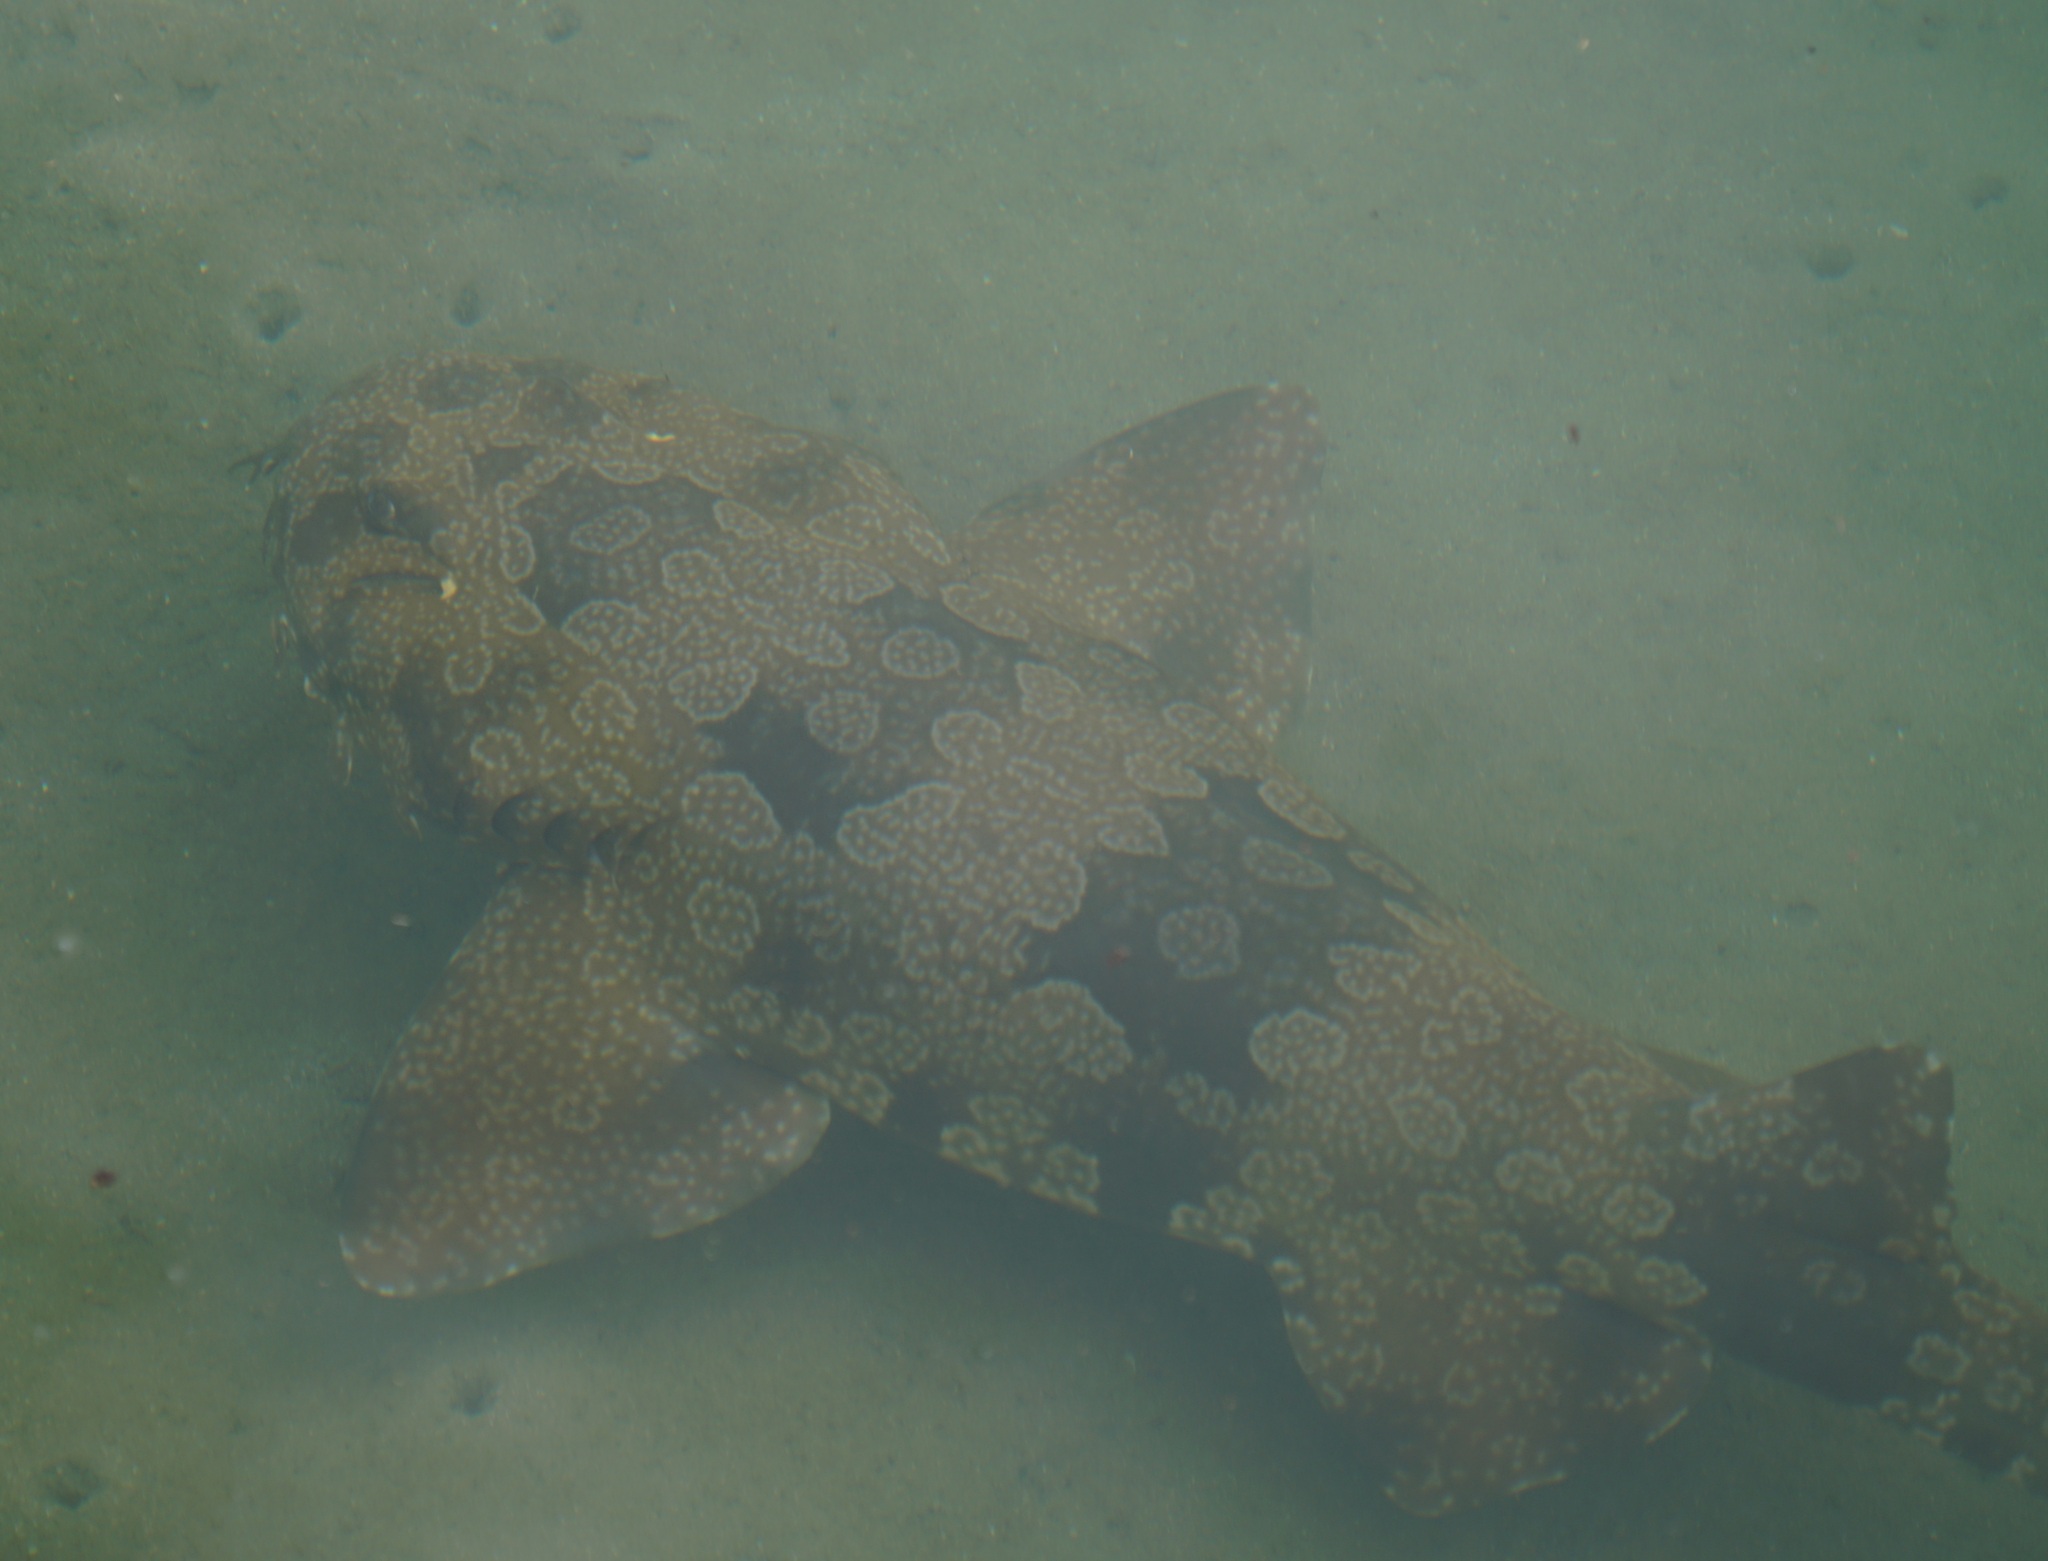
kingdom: Animalia
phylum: Chordata
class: Elasmobranchii
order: Orectolobiformes
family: Orectolobidae
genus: Orectolobus
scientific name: Orectolobus maculatus
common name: Spotted wobbegong
